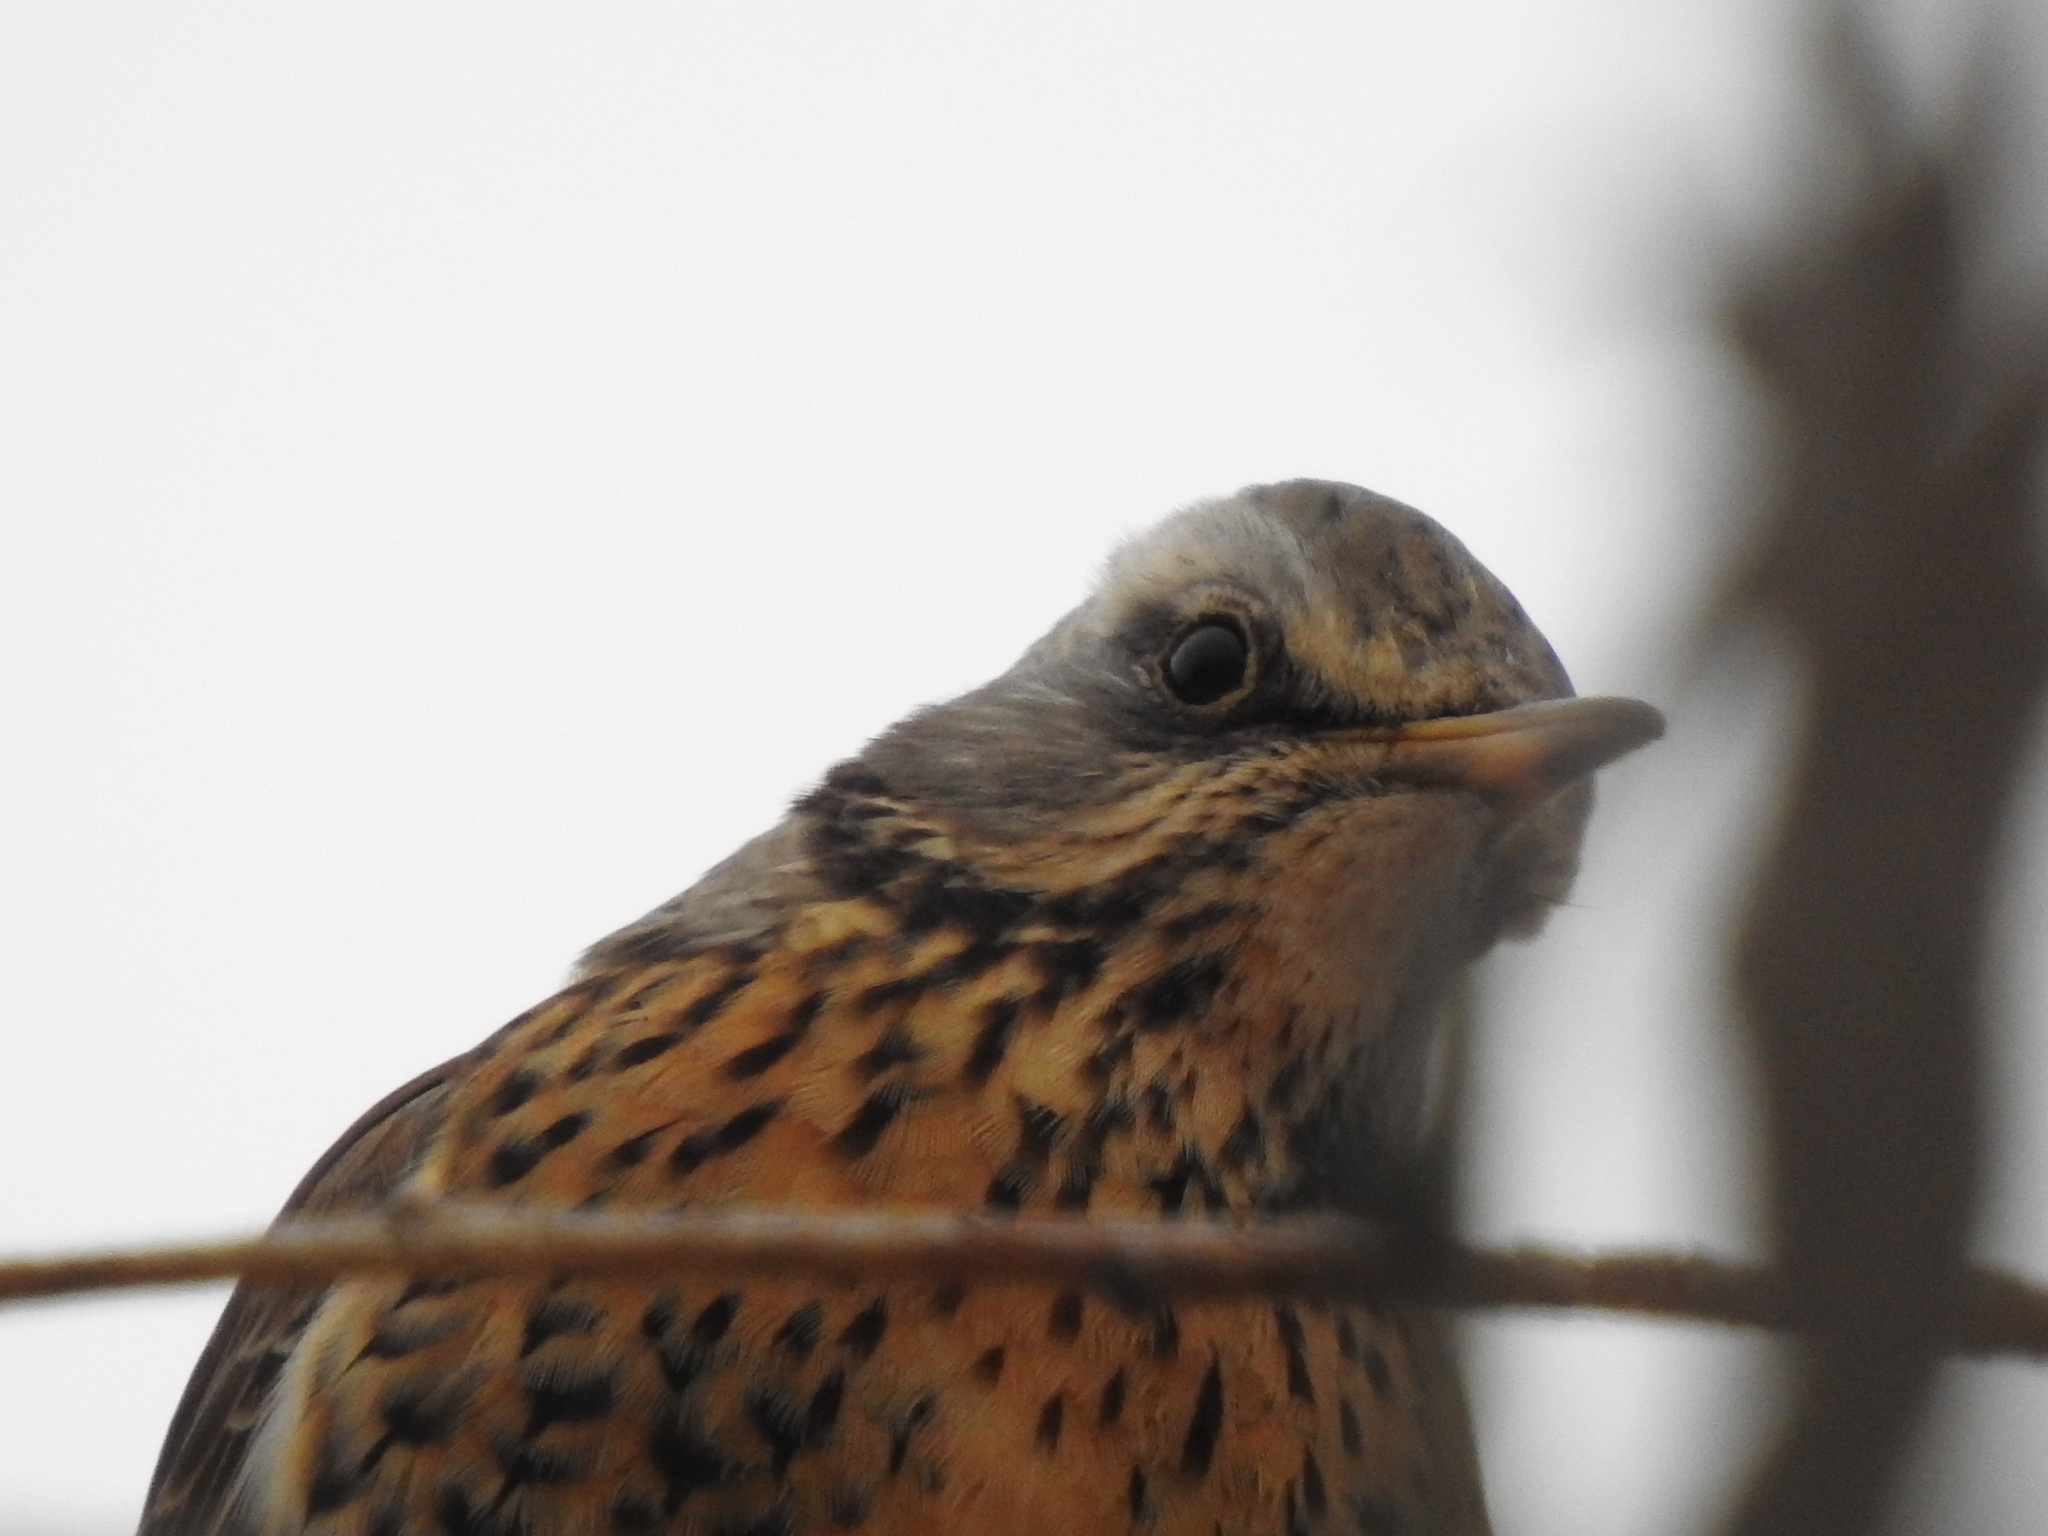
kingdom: Animalia
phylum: Chordata
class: Aves
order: Passeriformes
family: Turdidae
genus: Turdus
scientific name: Turdus pilaris
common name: Fieldfare
